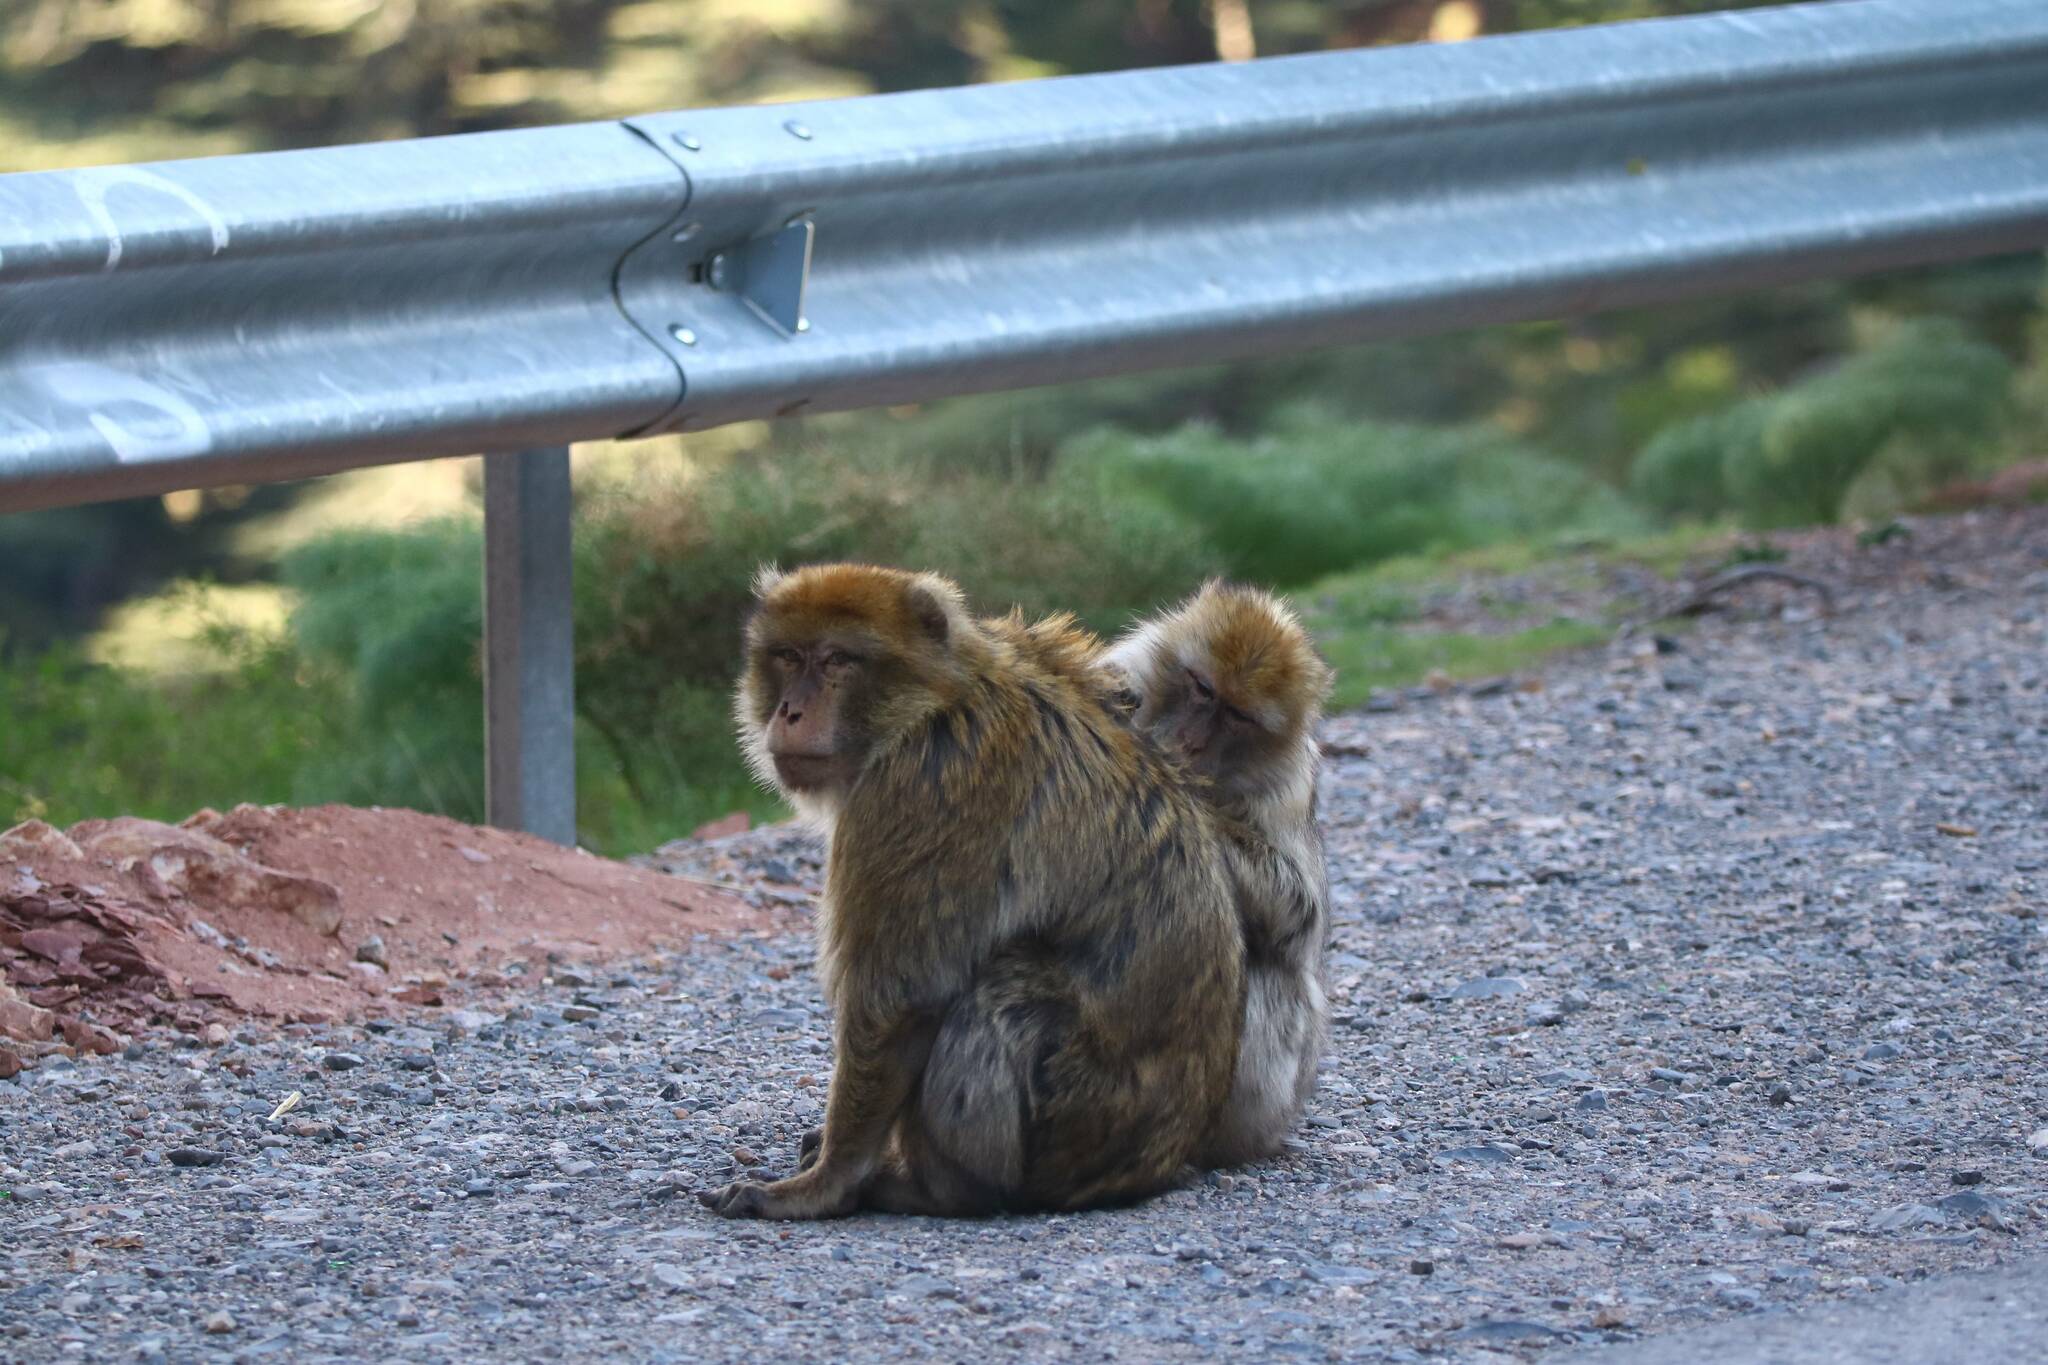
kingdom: Animalia
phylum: Chordata
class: Mammalia
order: Primates
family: Cercopithecidae
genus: Macaca
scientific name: Macaca sylvanus
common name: Barbary macaque
